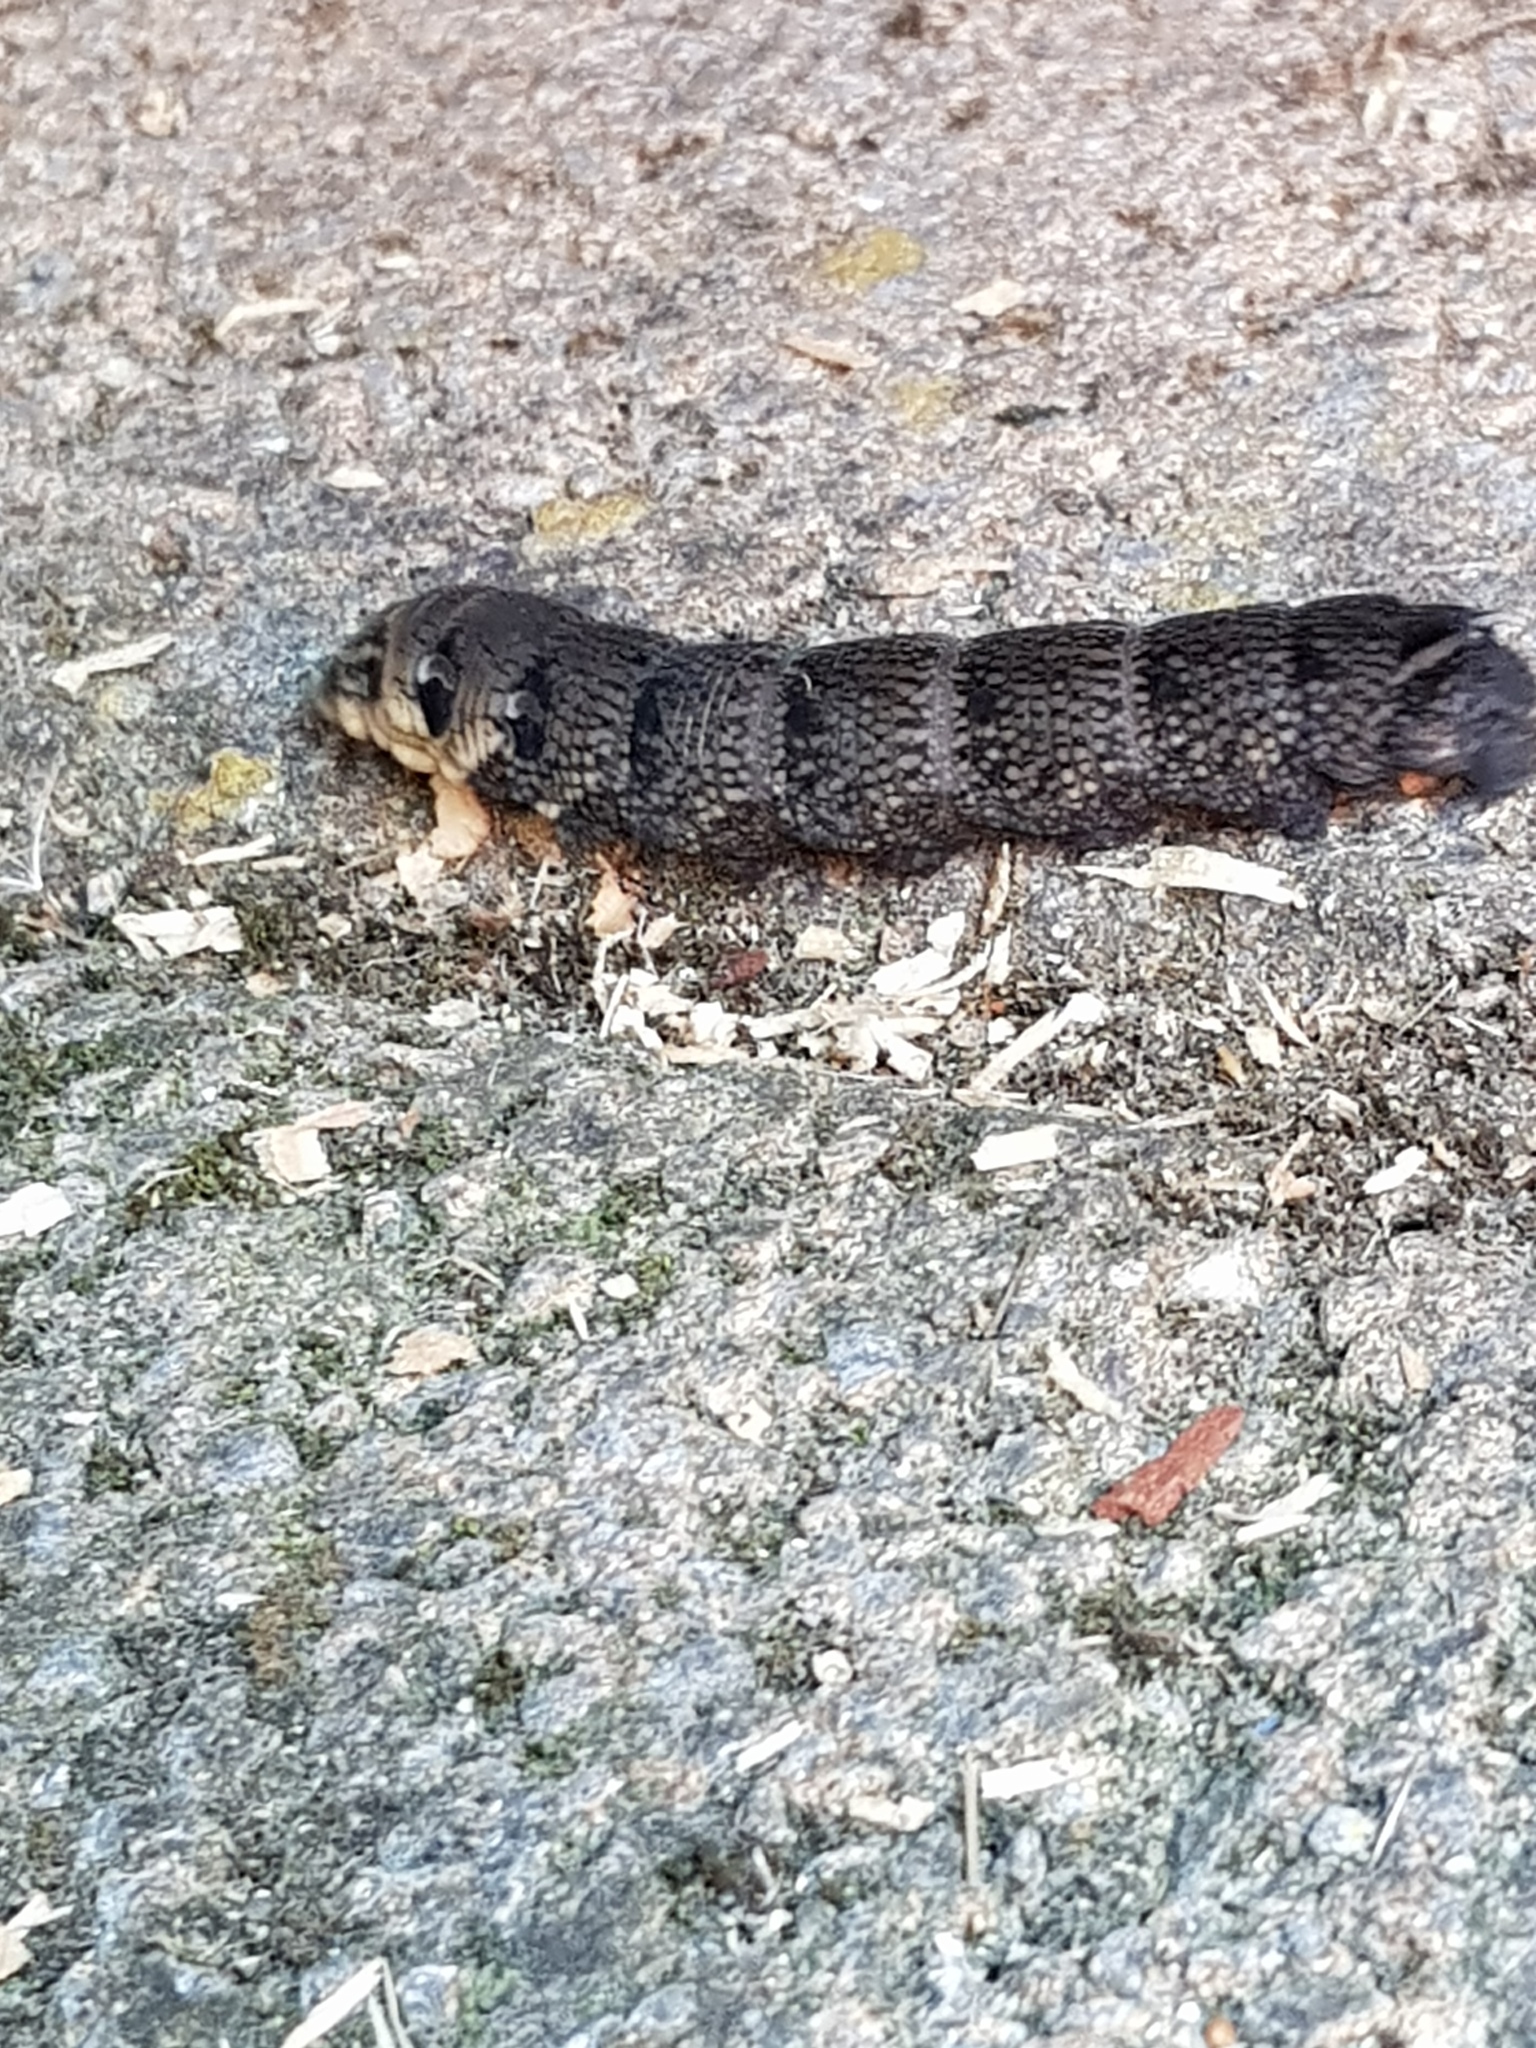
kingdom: Animalia
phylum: Arthropoda
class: Insecta
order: Lepidoptera
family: Sphingidae
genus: Deilephila
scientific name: Deilephila elpenor
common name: Elephant hawk-moth
